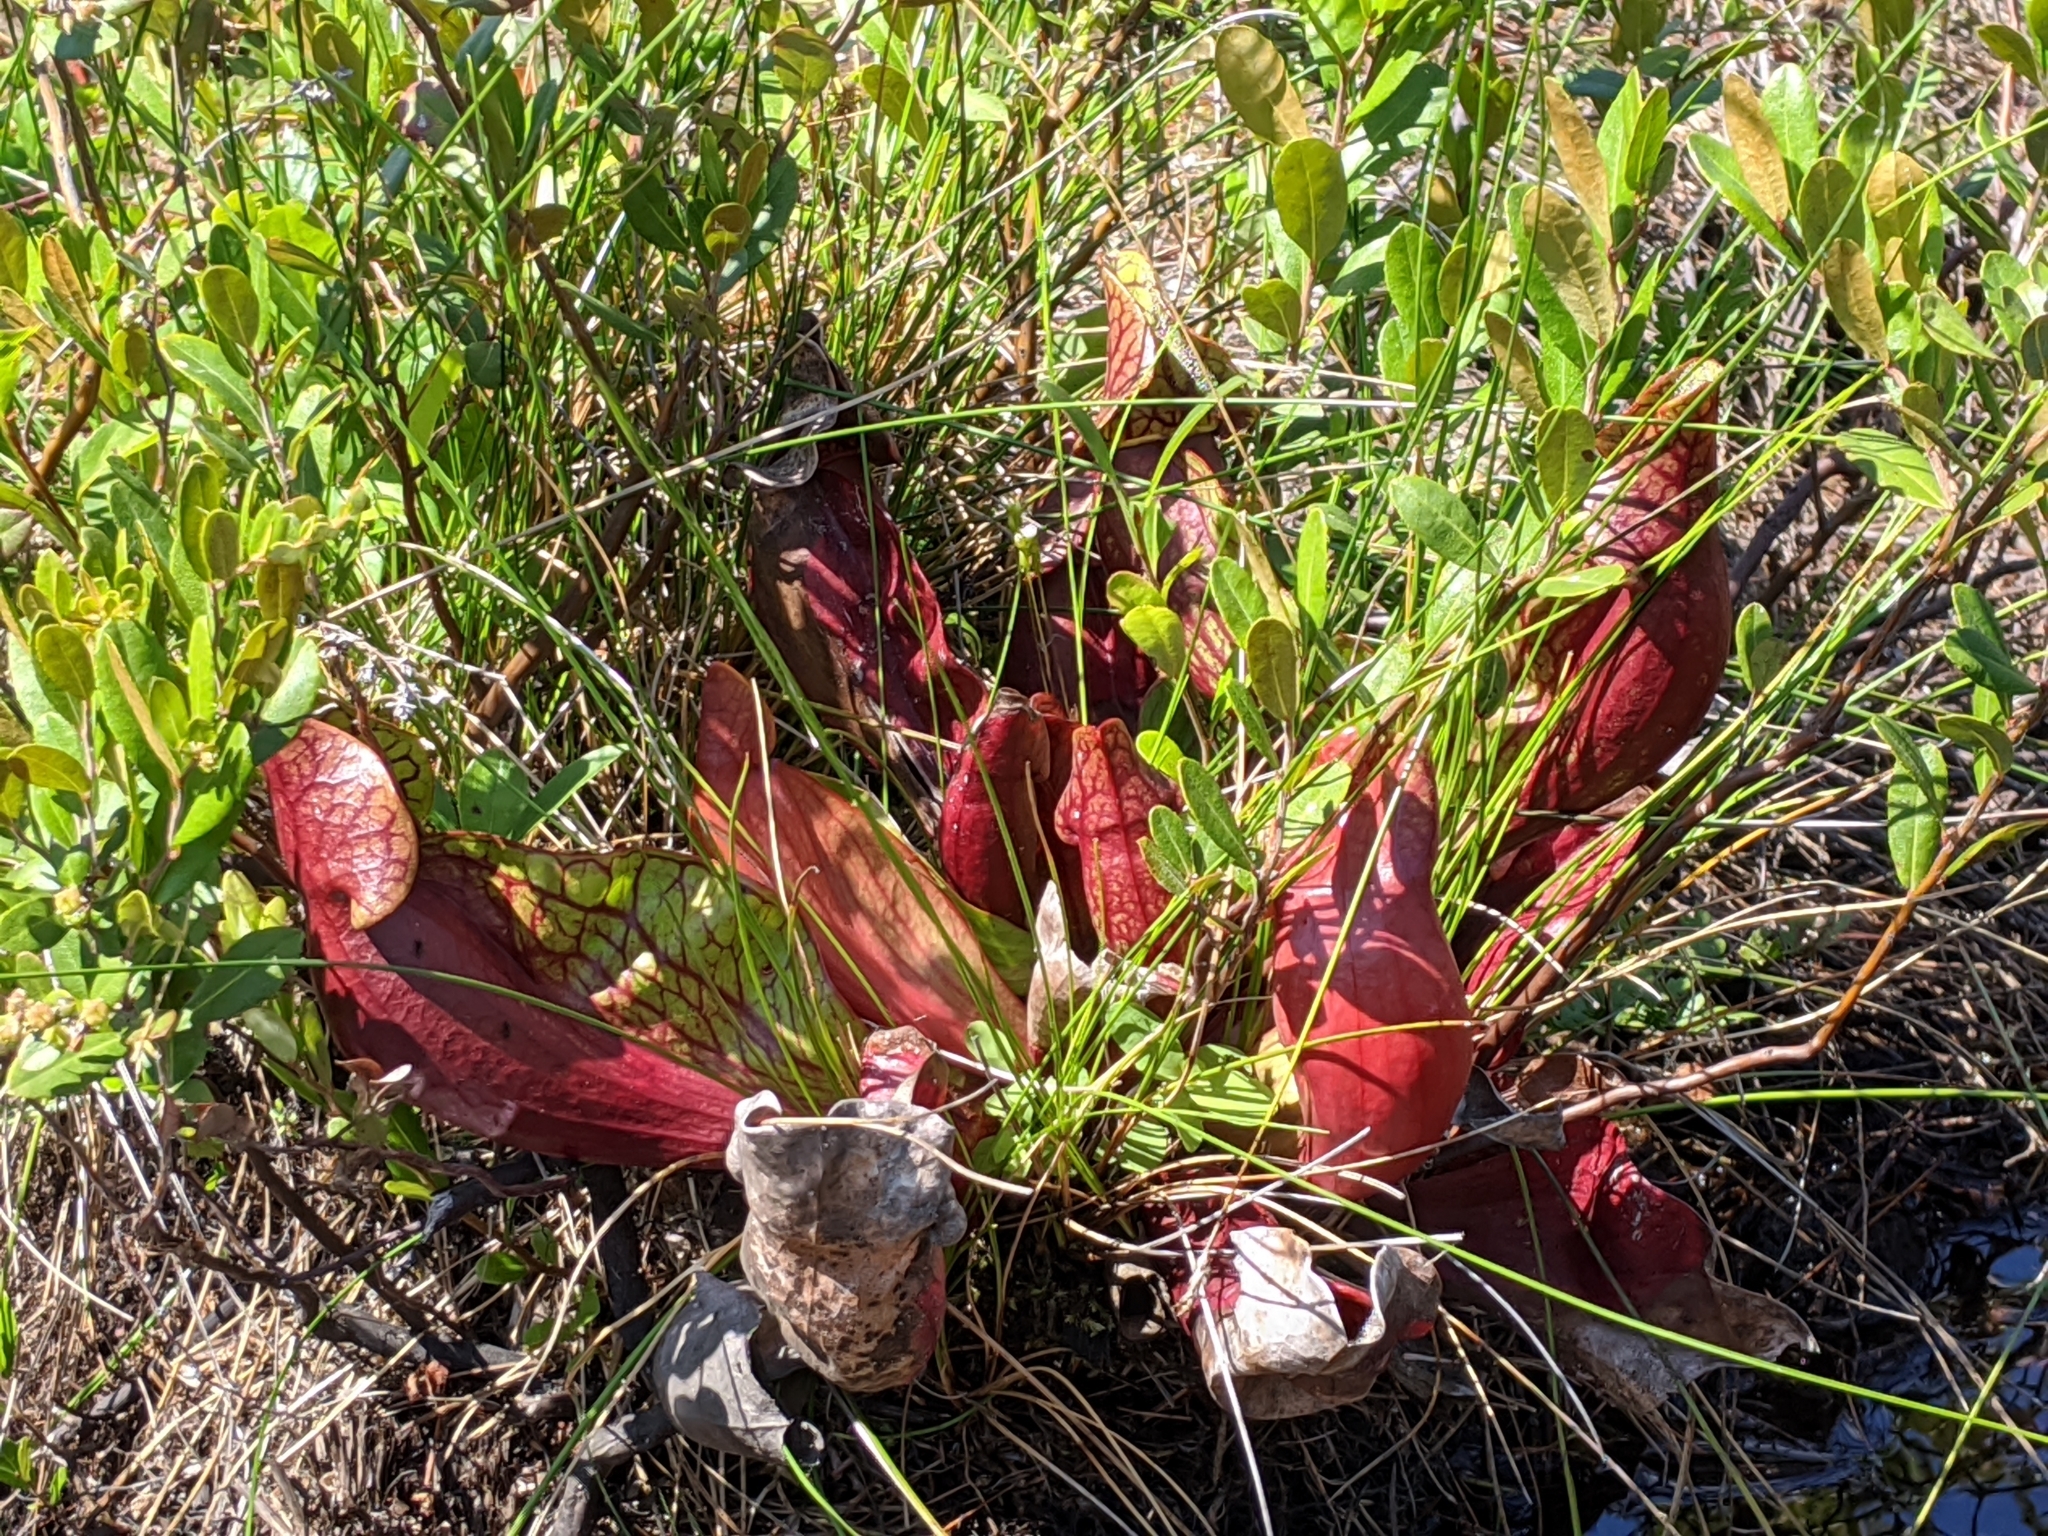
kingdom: Plantae
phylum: Tracheophyta
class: Magnoliopsida
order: Ericales
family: Sarraceniaceae
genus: Sarracenia
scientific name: Sarracenia purpurea
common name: Pitcherplant
